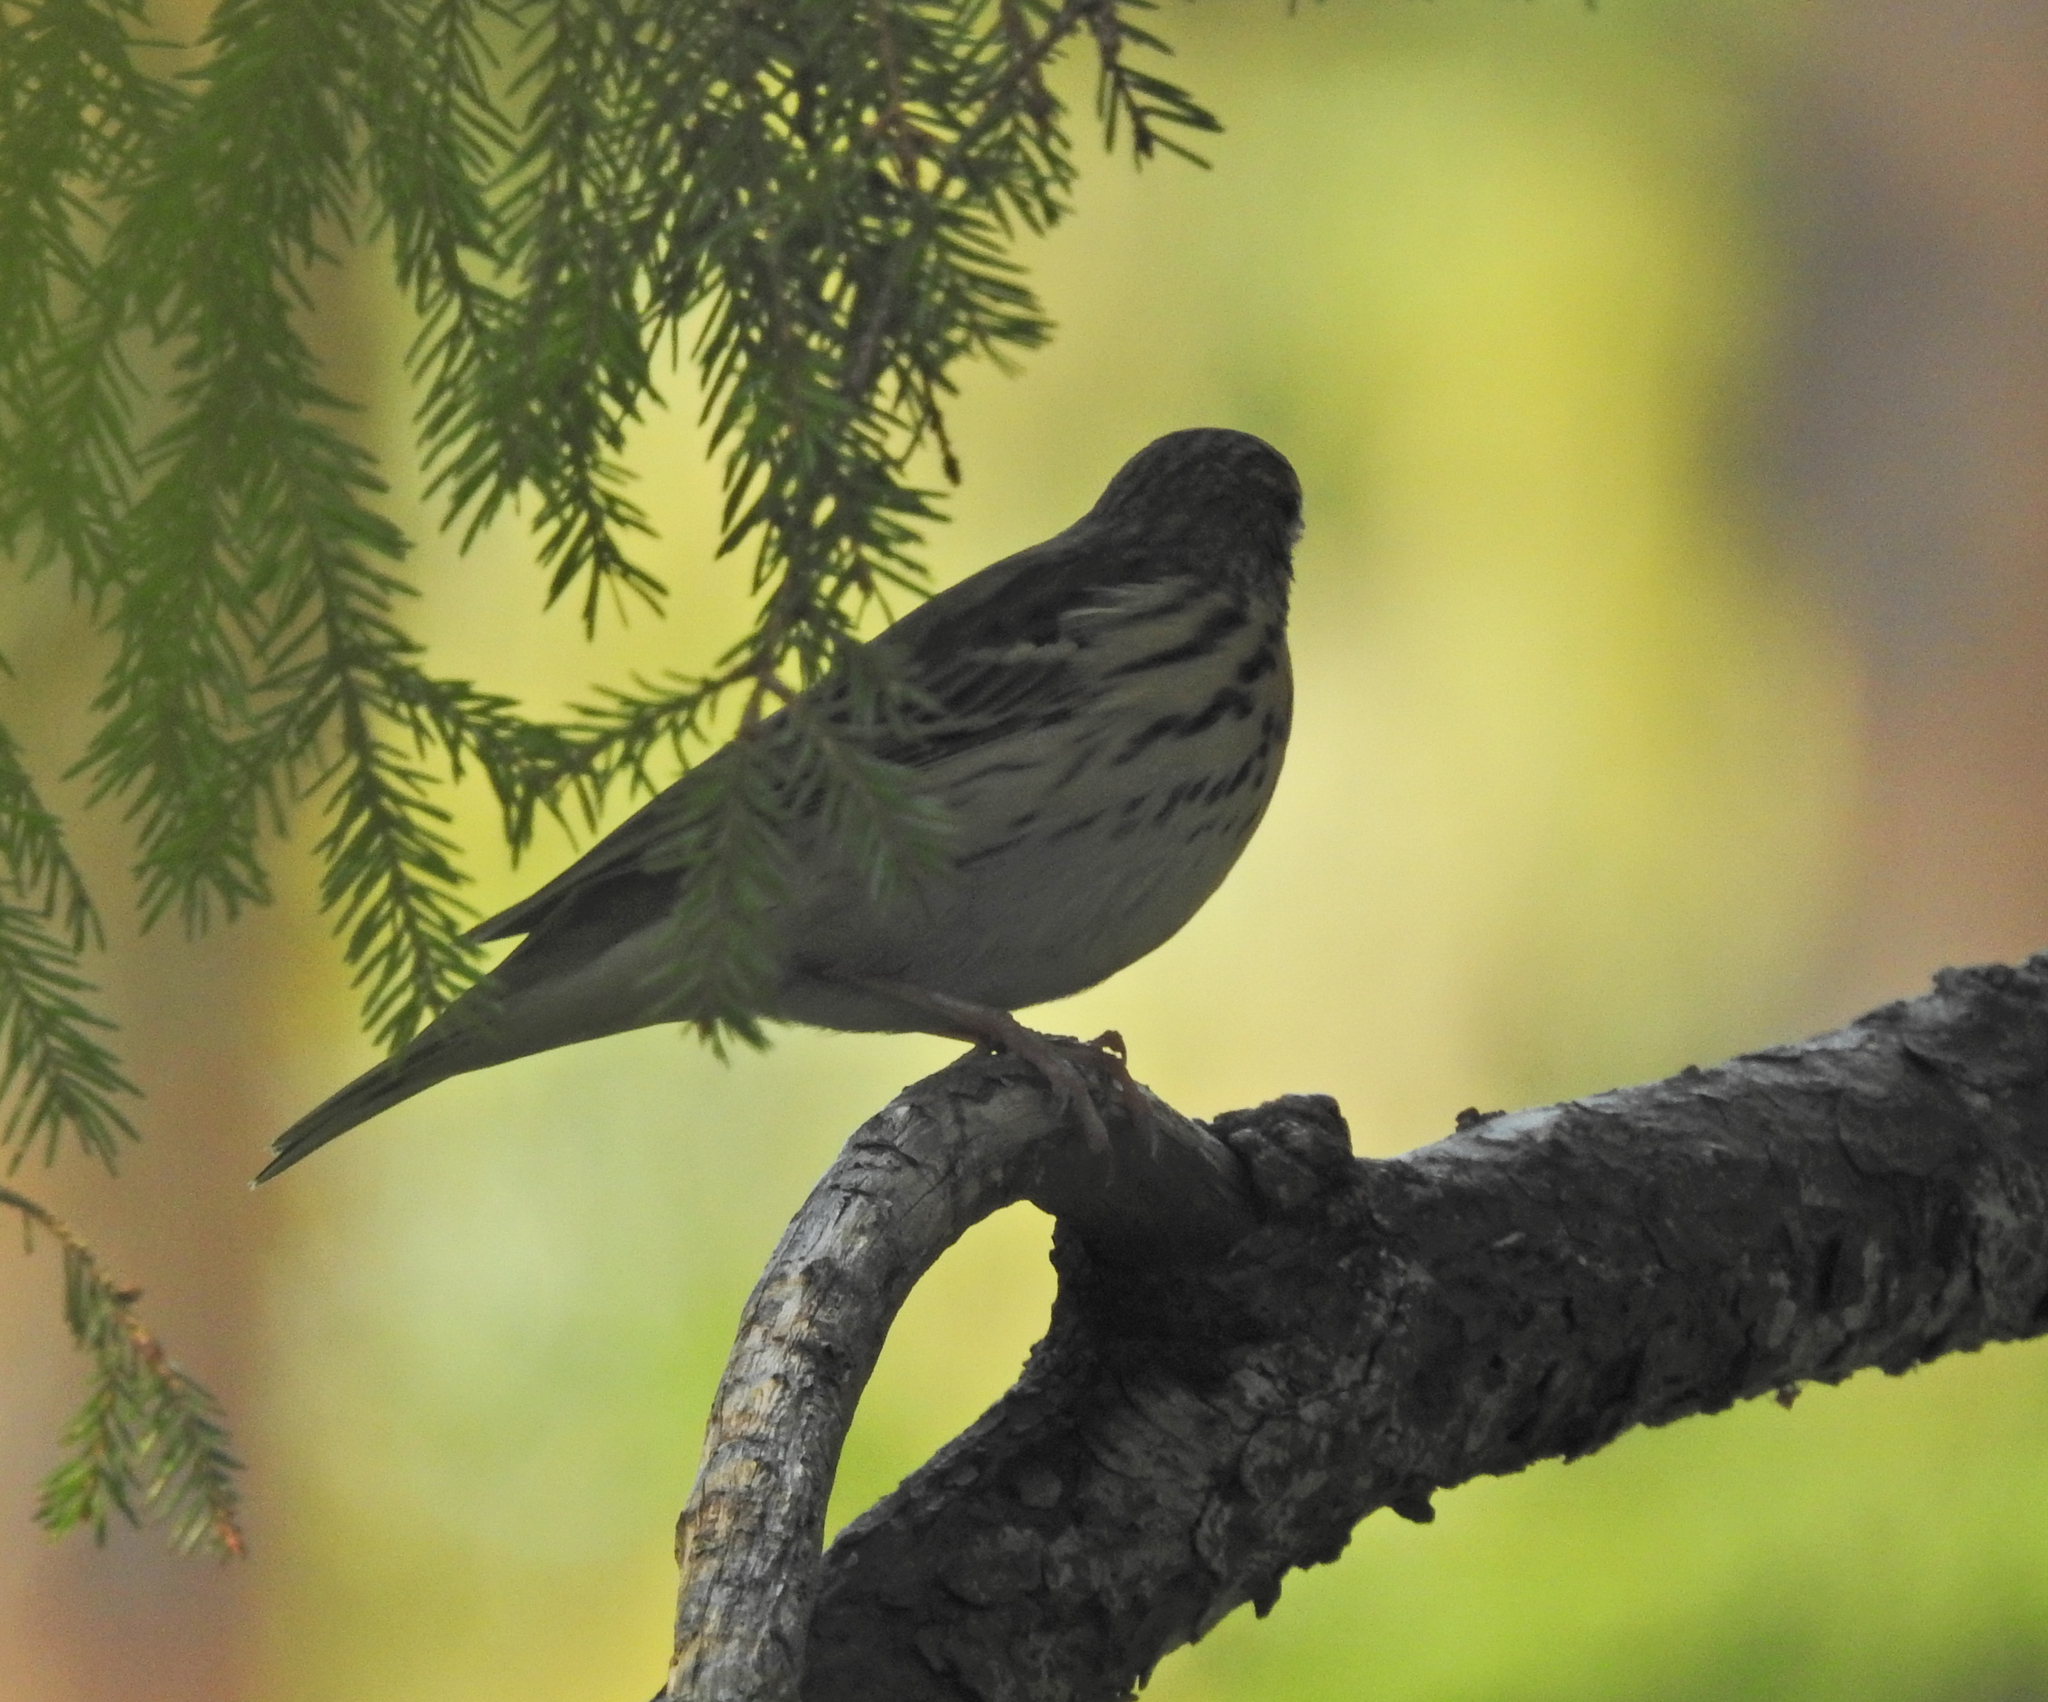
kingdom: Animalia
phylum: Chordata
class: Aves
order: Passeriformes
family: Motacillidae
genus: Anthus
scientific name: Anthus trivialis
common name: Tree pipit
